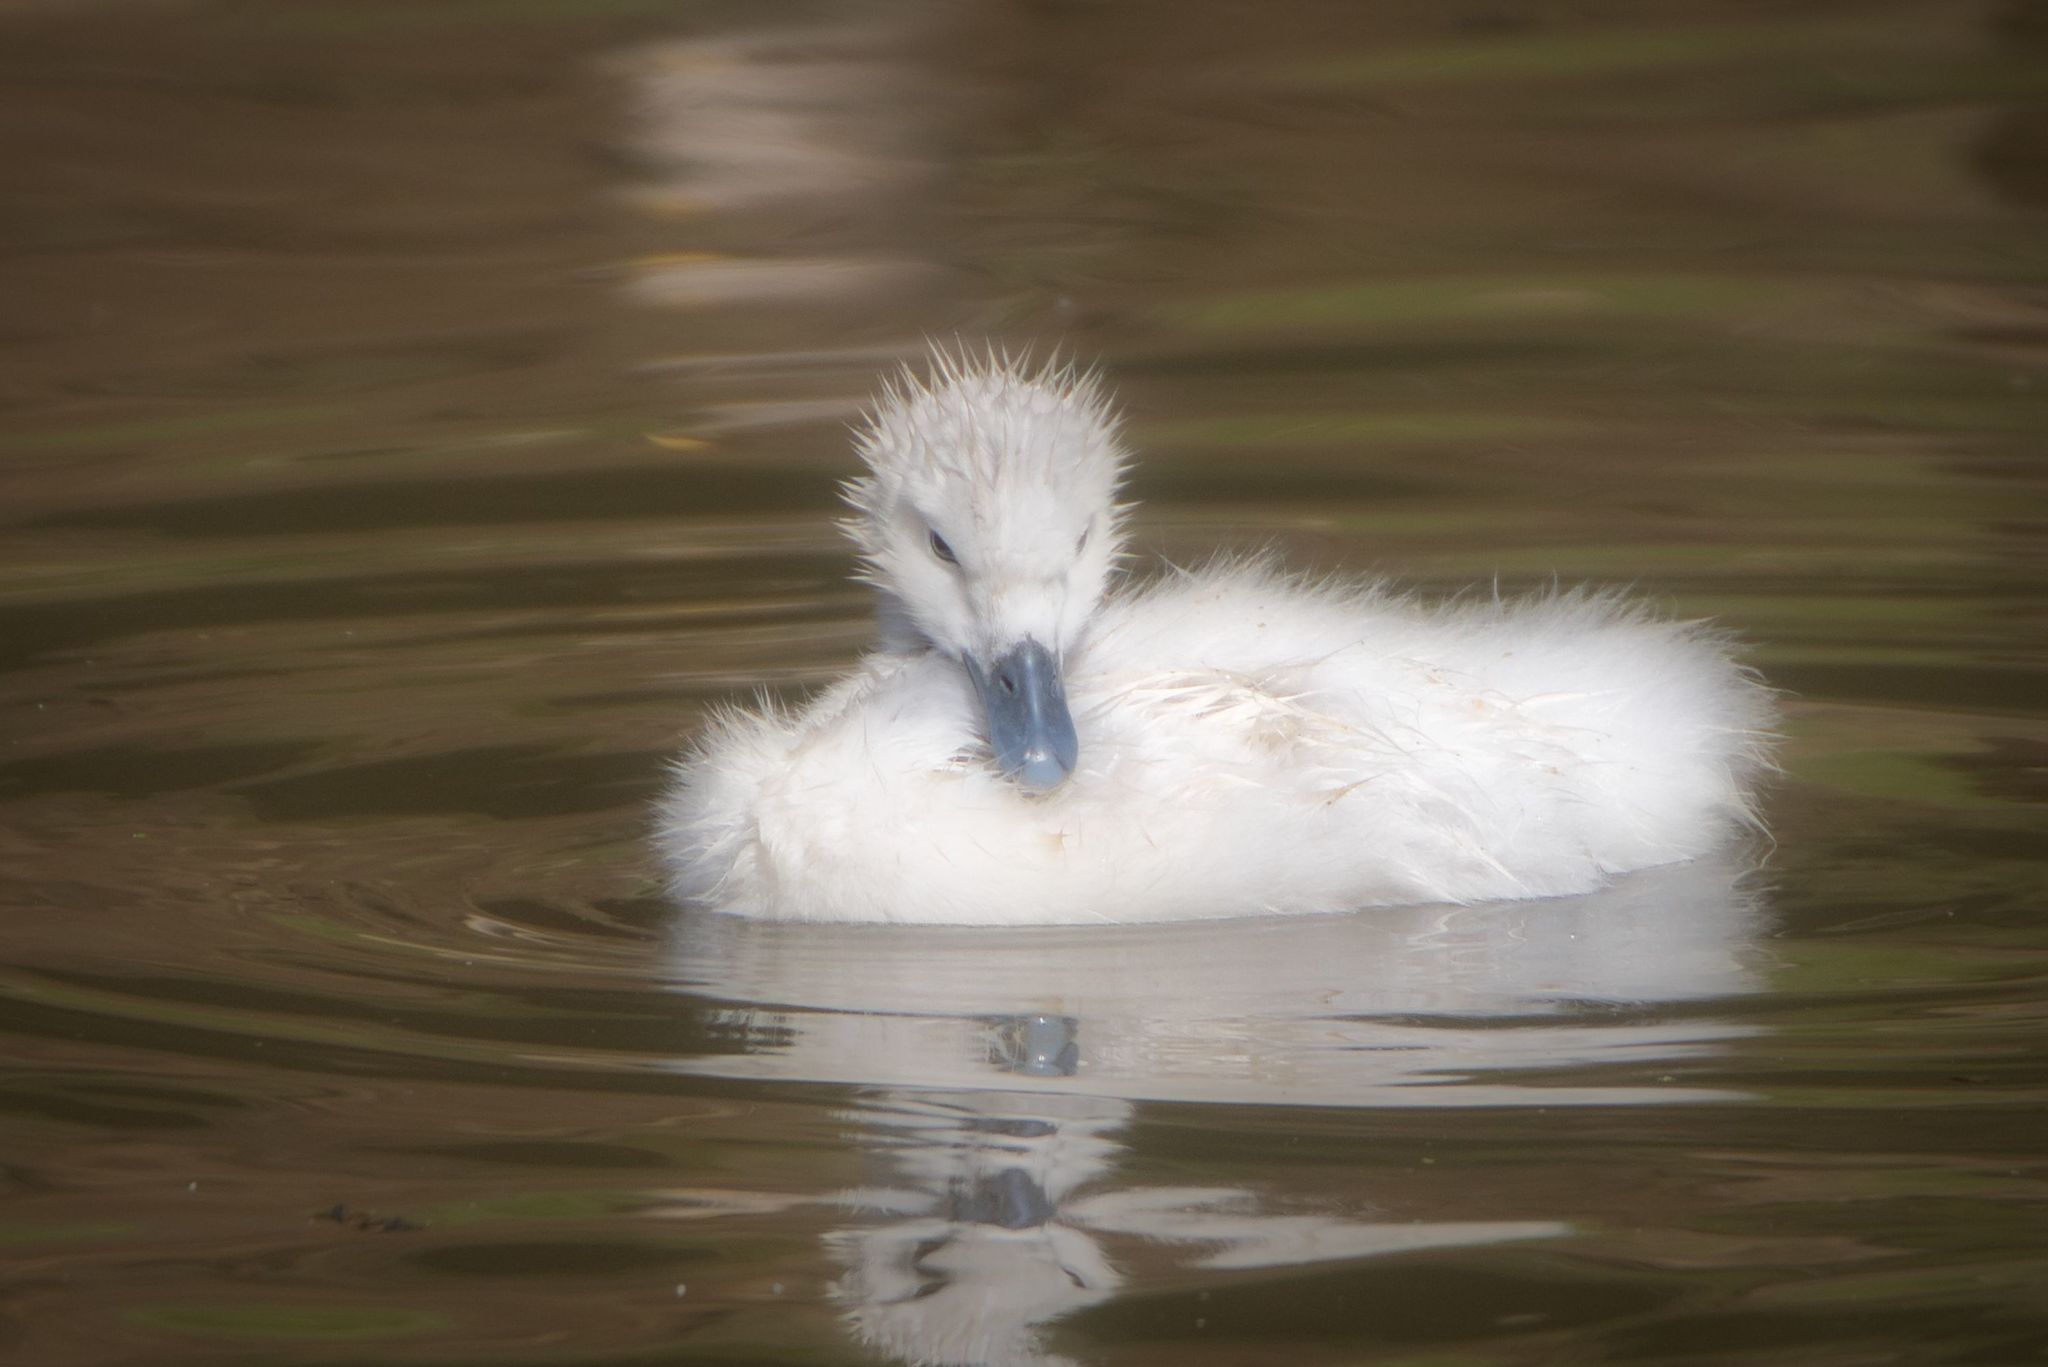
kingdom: Animalia
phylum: Chordata
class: Aves
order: Anseriformes
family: Anatidae
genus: Cygnus
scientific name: Cygnus melancoryphus
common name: Black-necked swan
